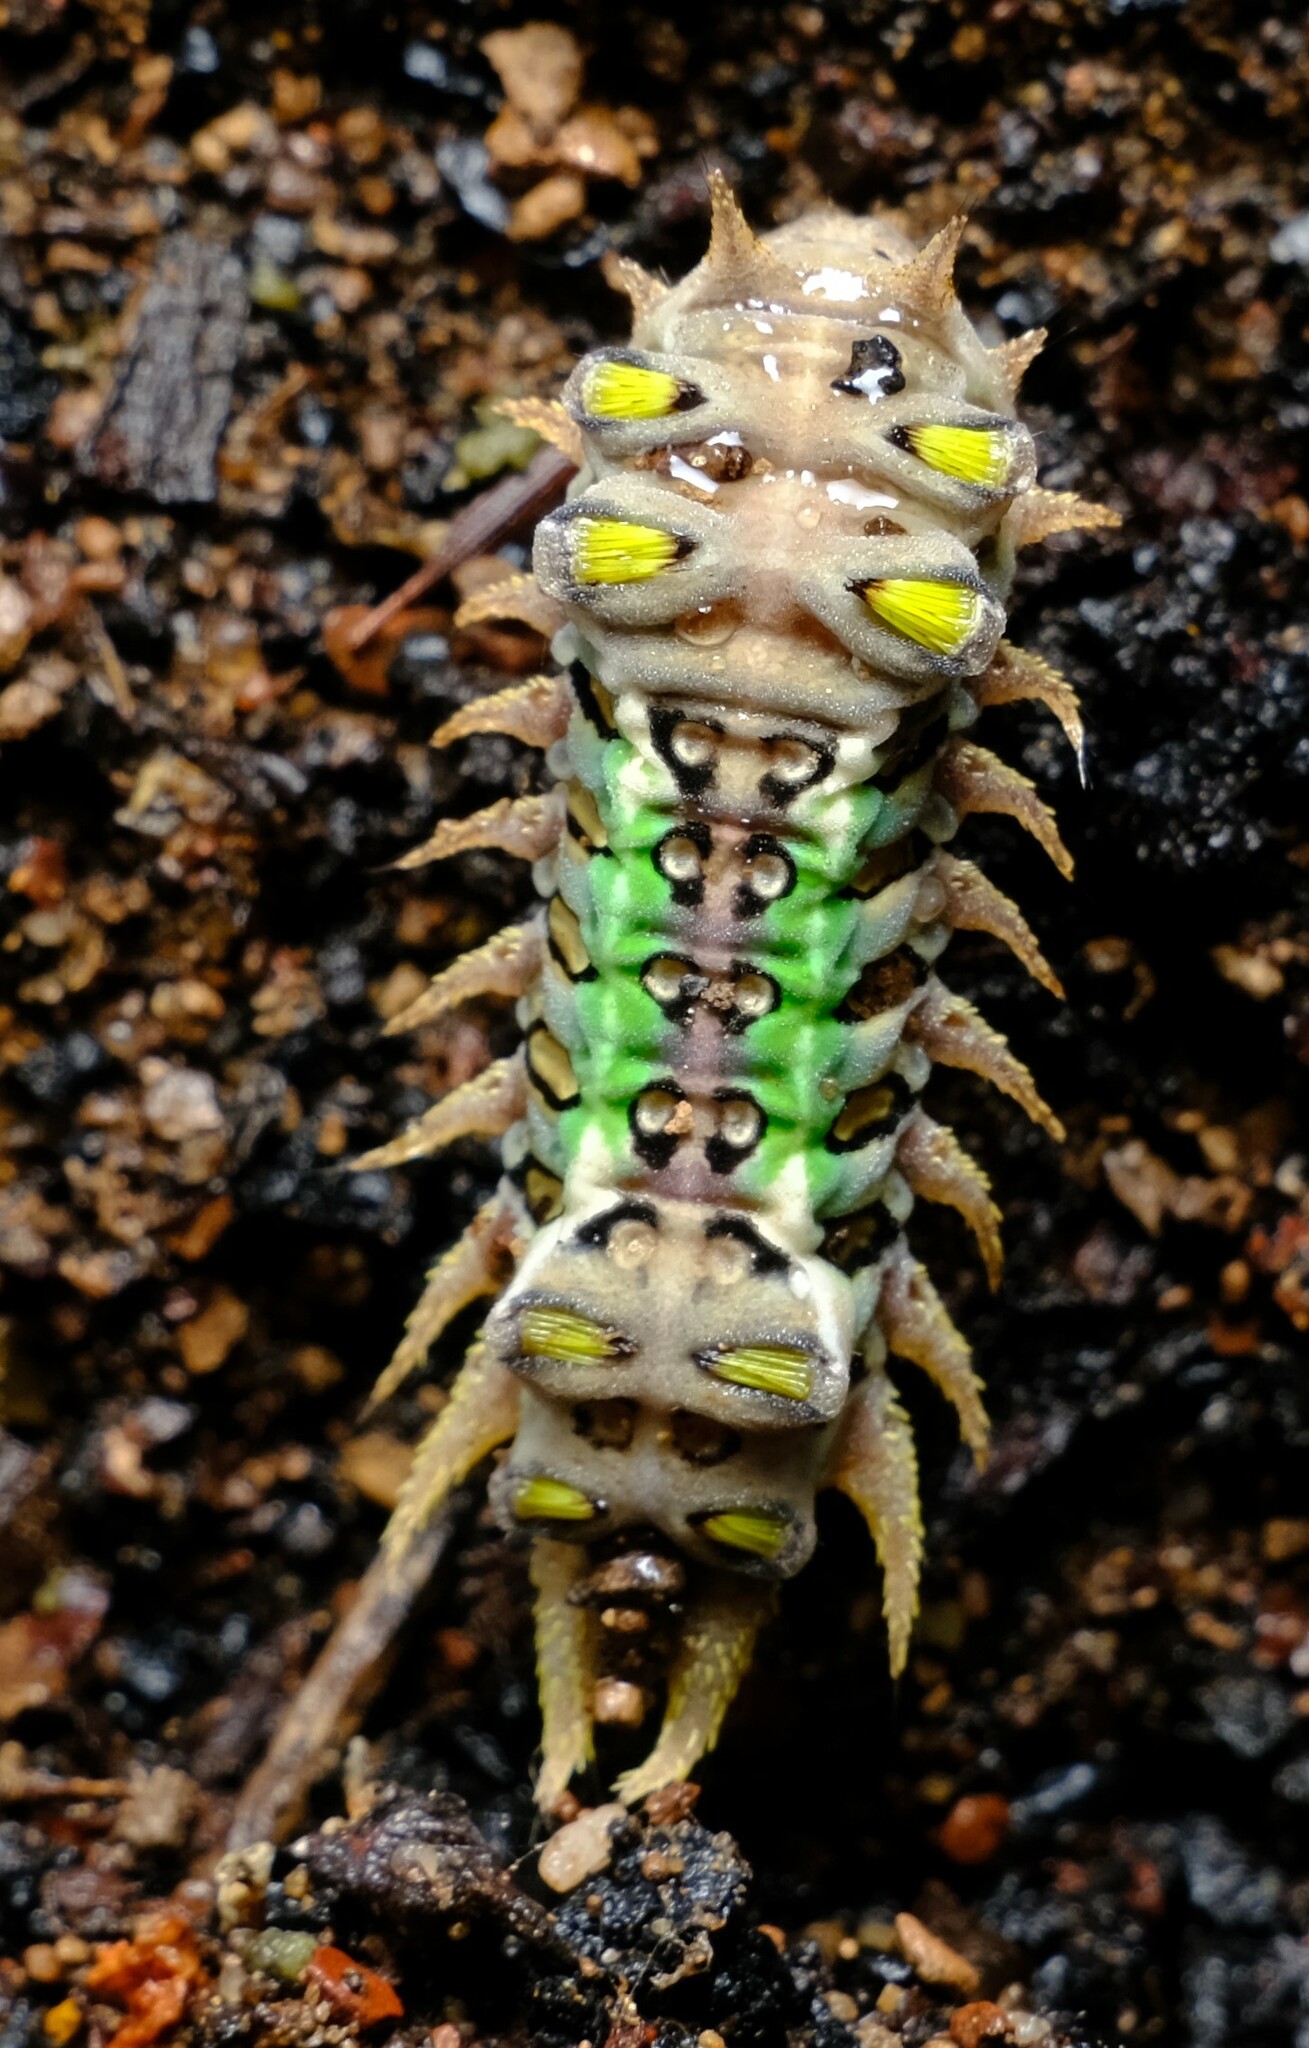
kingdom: Animalia
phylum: Arthropoda
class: Insecta
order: Lepidoptera
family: Limacodidae
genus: Doratifera
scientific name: Doratifera oxleyi
